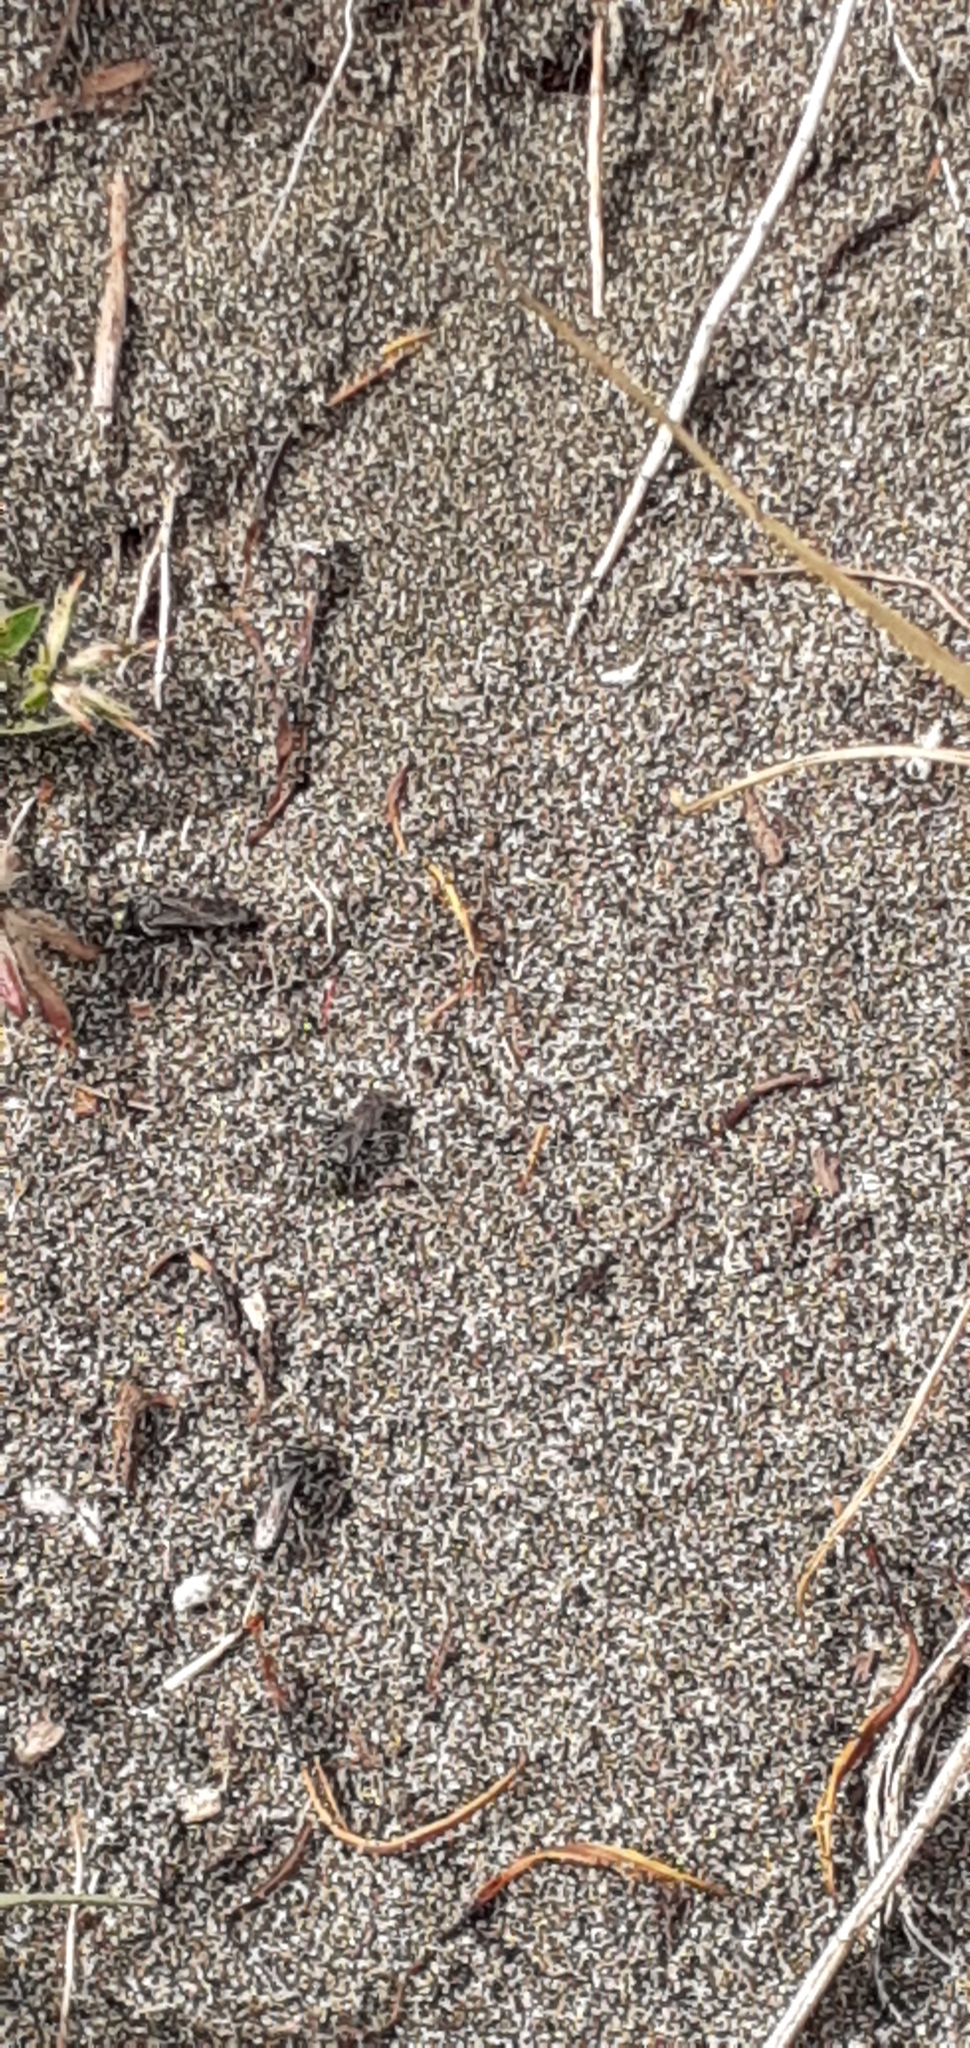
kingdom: Animalia
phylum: Arthropoda
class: Insecta
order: Hymenoptera
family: Crabronidae
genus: Tachysphex
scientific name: Tachysphex nigerrimus
